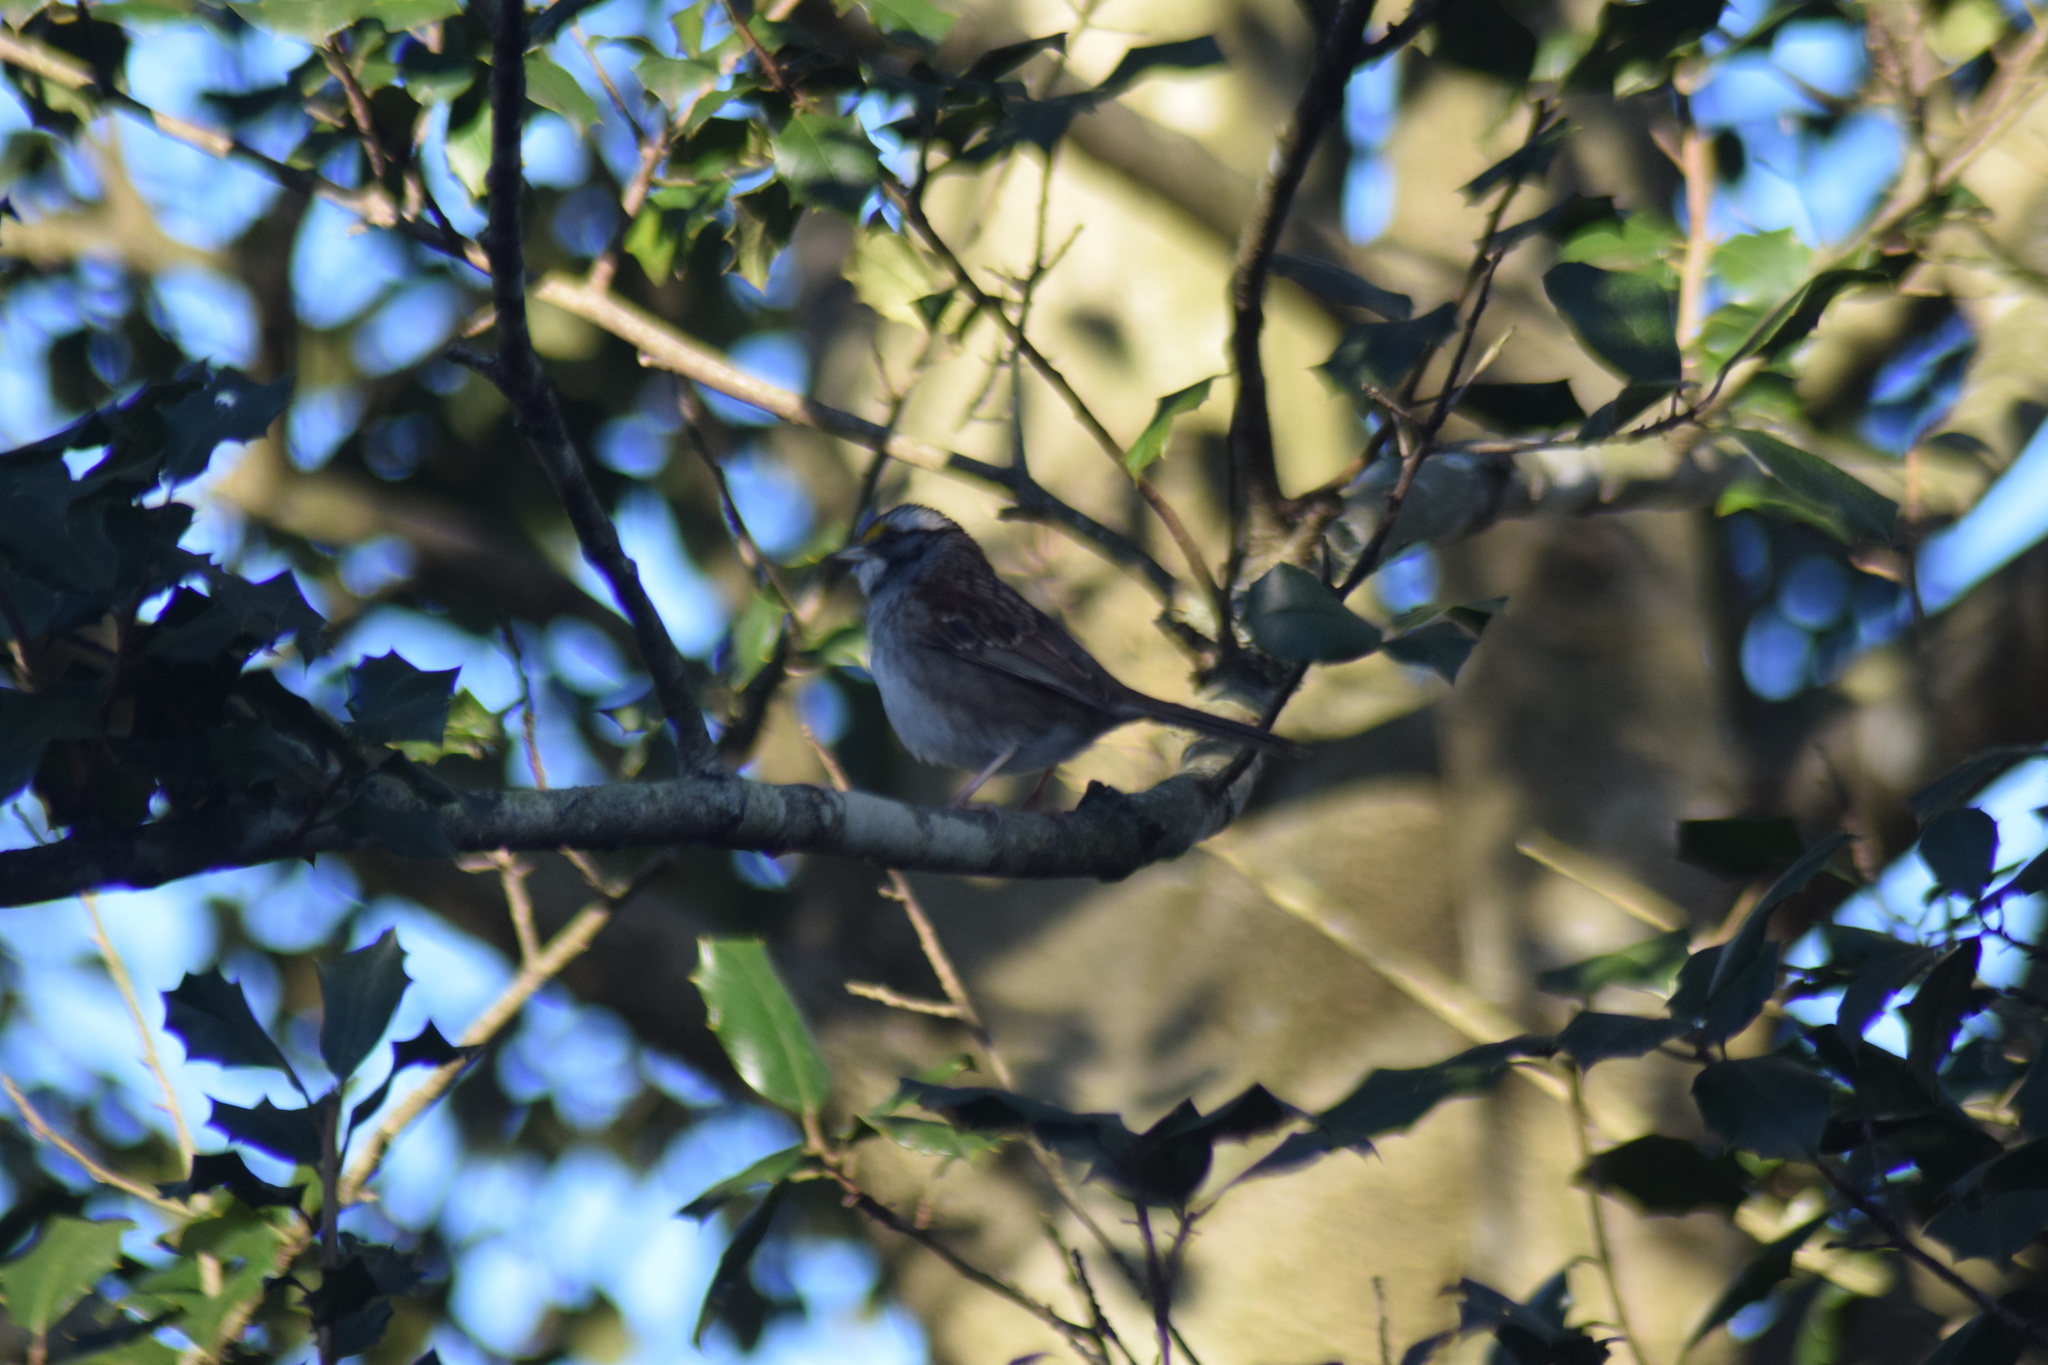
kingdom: Animalia
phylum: Chordata
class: Aves
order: Passeriformes
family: Passerellidae
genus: Zonotrichia
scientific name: Zonotrichia albicollis
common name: White-throated sparrow
